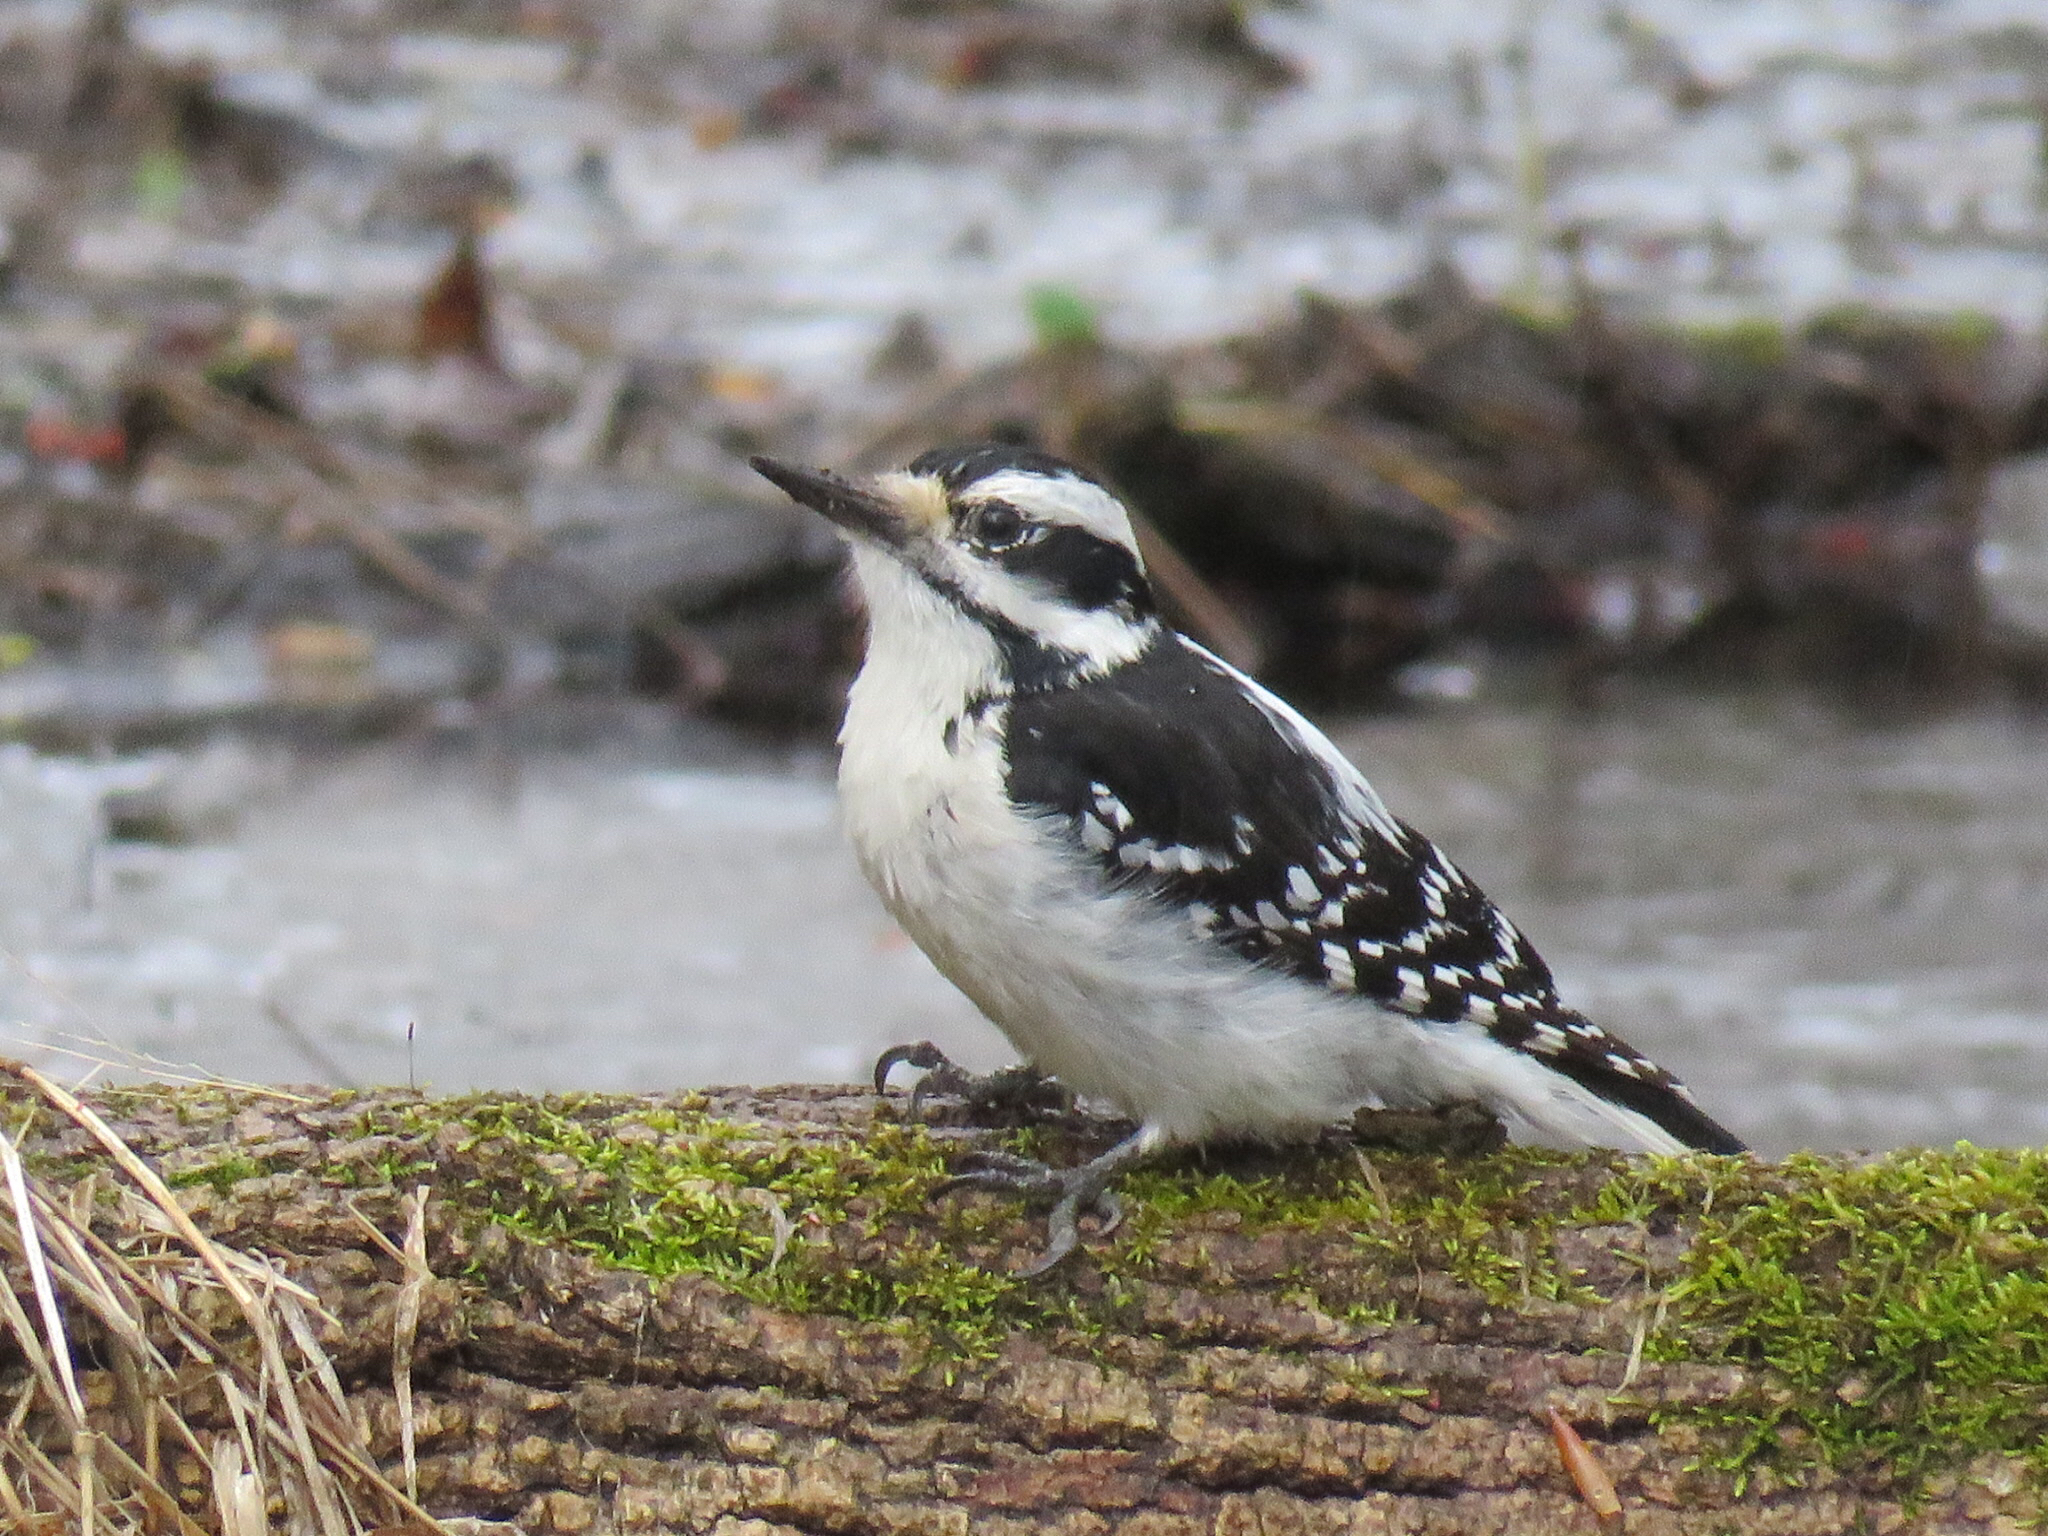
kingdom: Animalia
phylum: Chordata
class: Aves
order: Piciformes
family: Picidae
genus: Leuconotopicus
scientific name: Leuconotopicus villosus
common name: Hairy woodpecker
